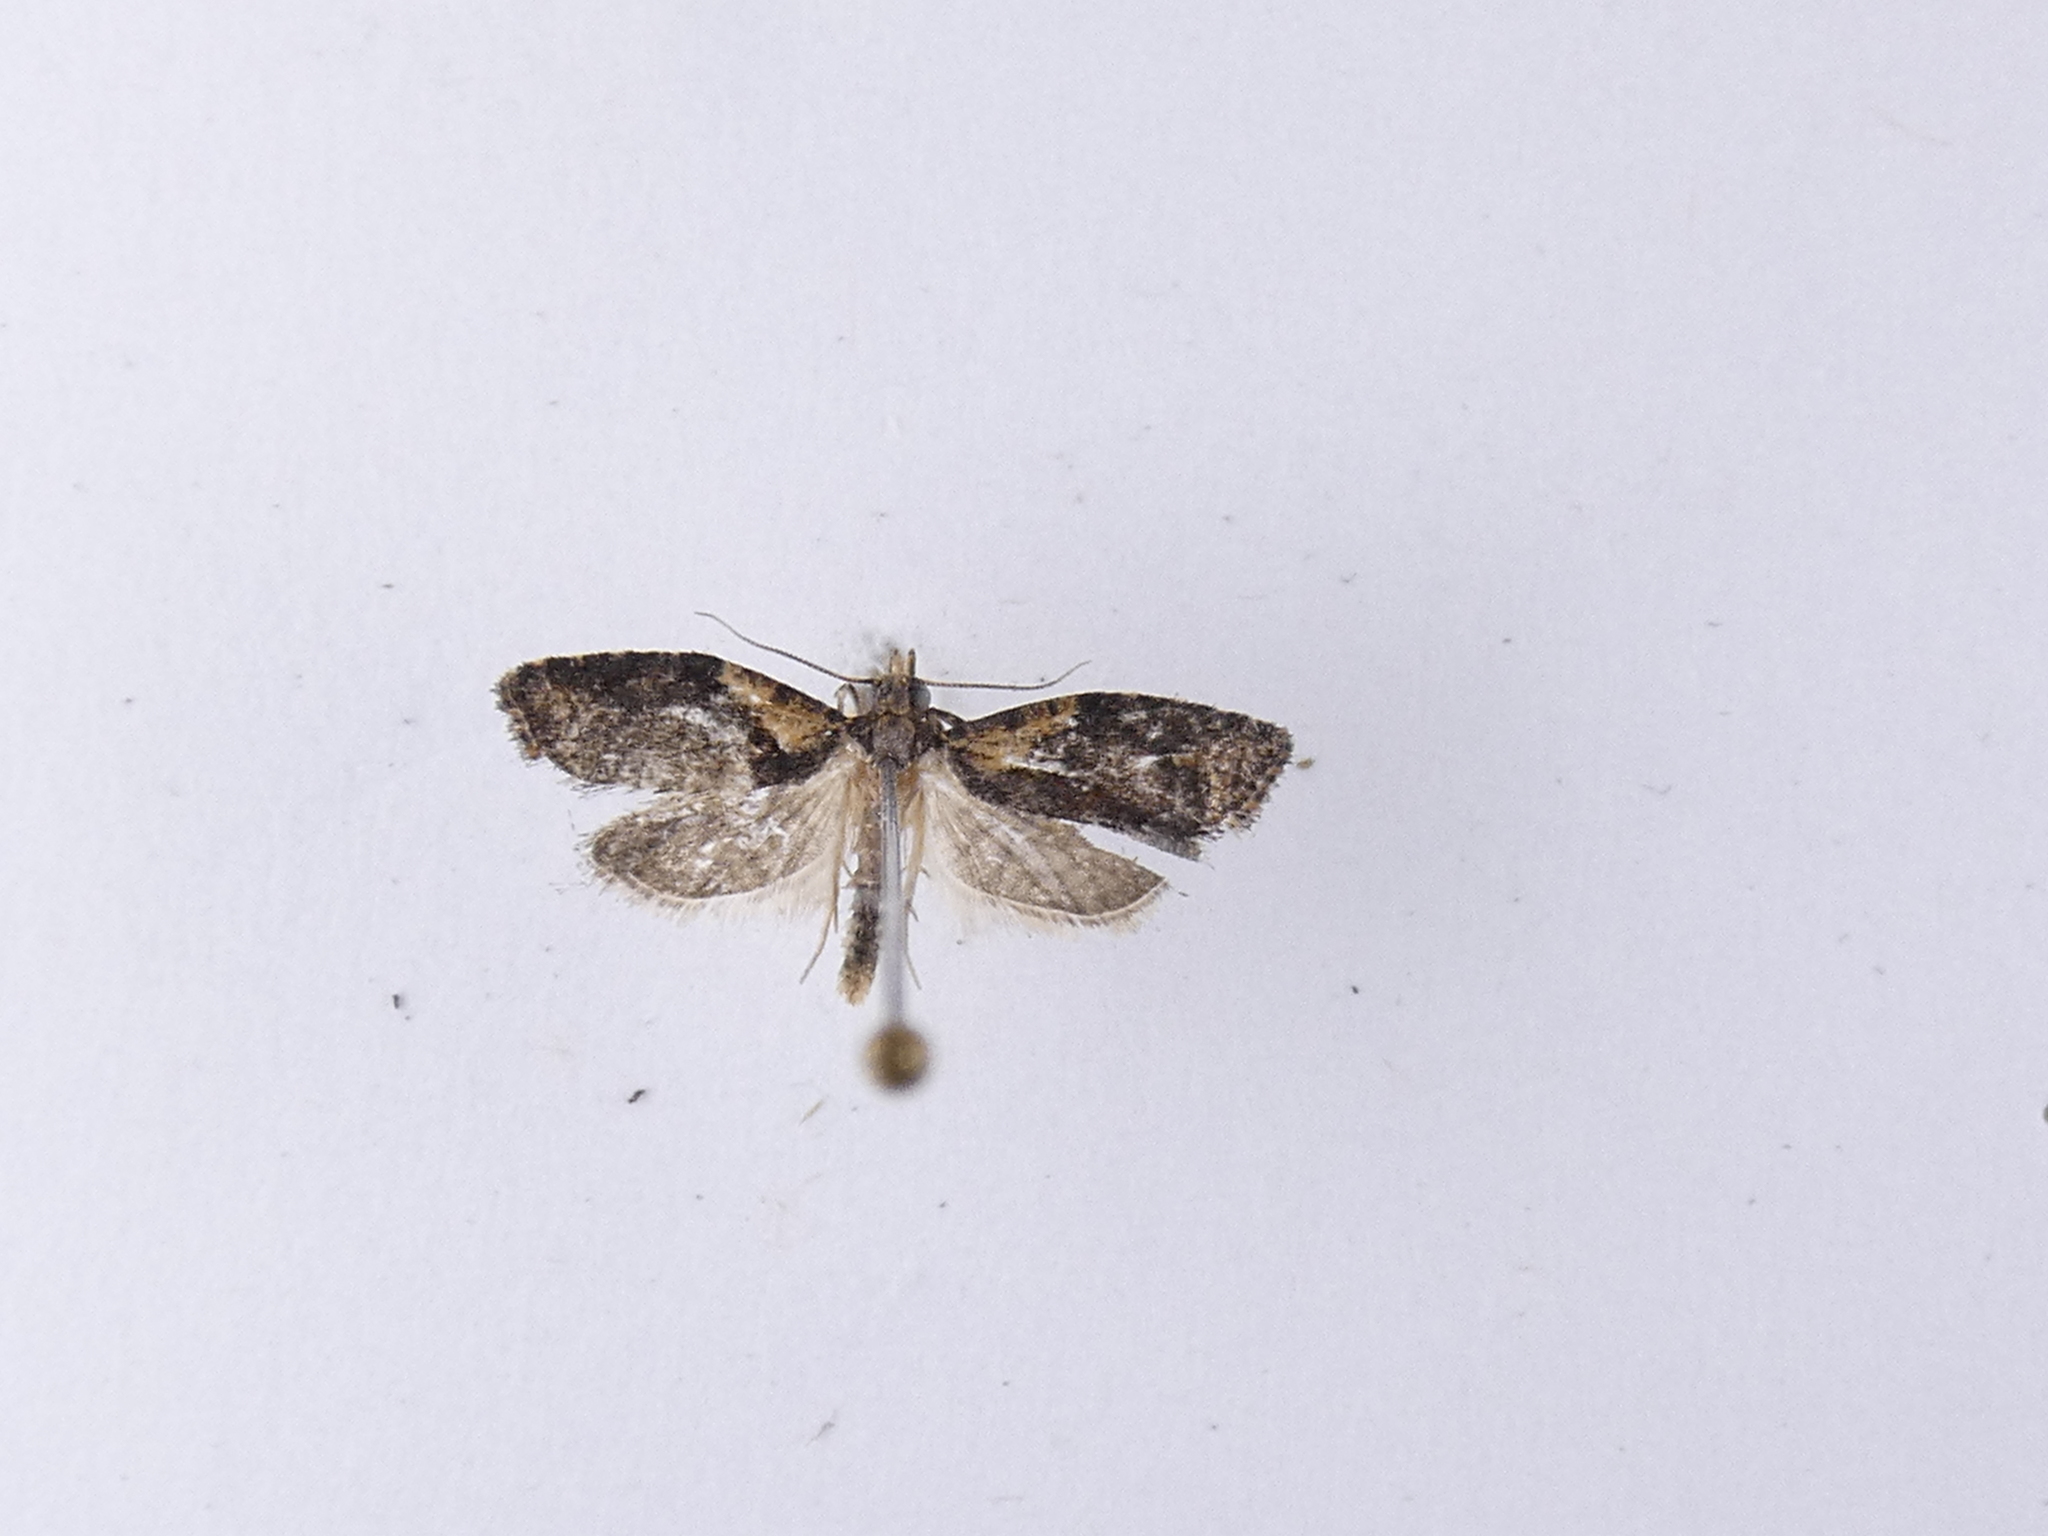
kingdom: Animalia
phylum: Arthropoda
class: Insecta
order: Lepidoptera
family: Tortricidae
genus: Capua
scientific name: Capua intractana
